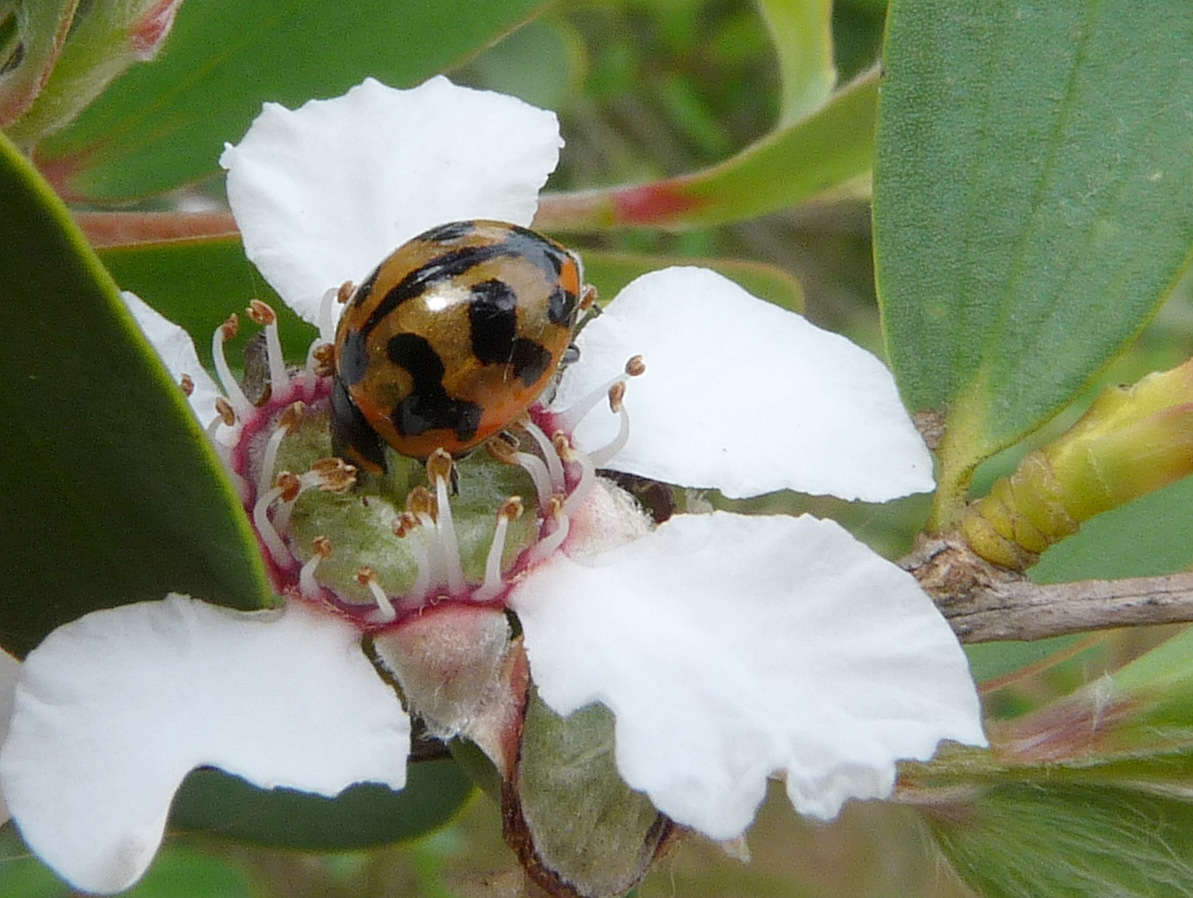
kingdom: Plantae
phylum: Tracheophyta
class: Magnoliopsida
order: Myrtales
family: Myrtaceae
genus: Leptospermum
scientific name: Leptospermum laevigatum
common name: Australian teatree
